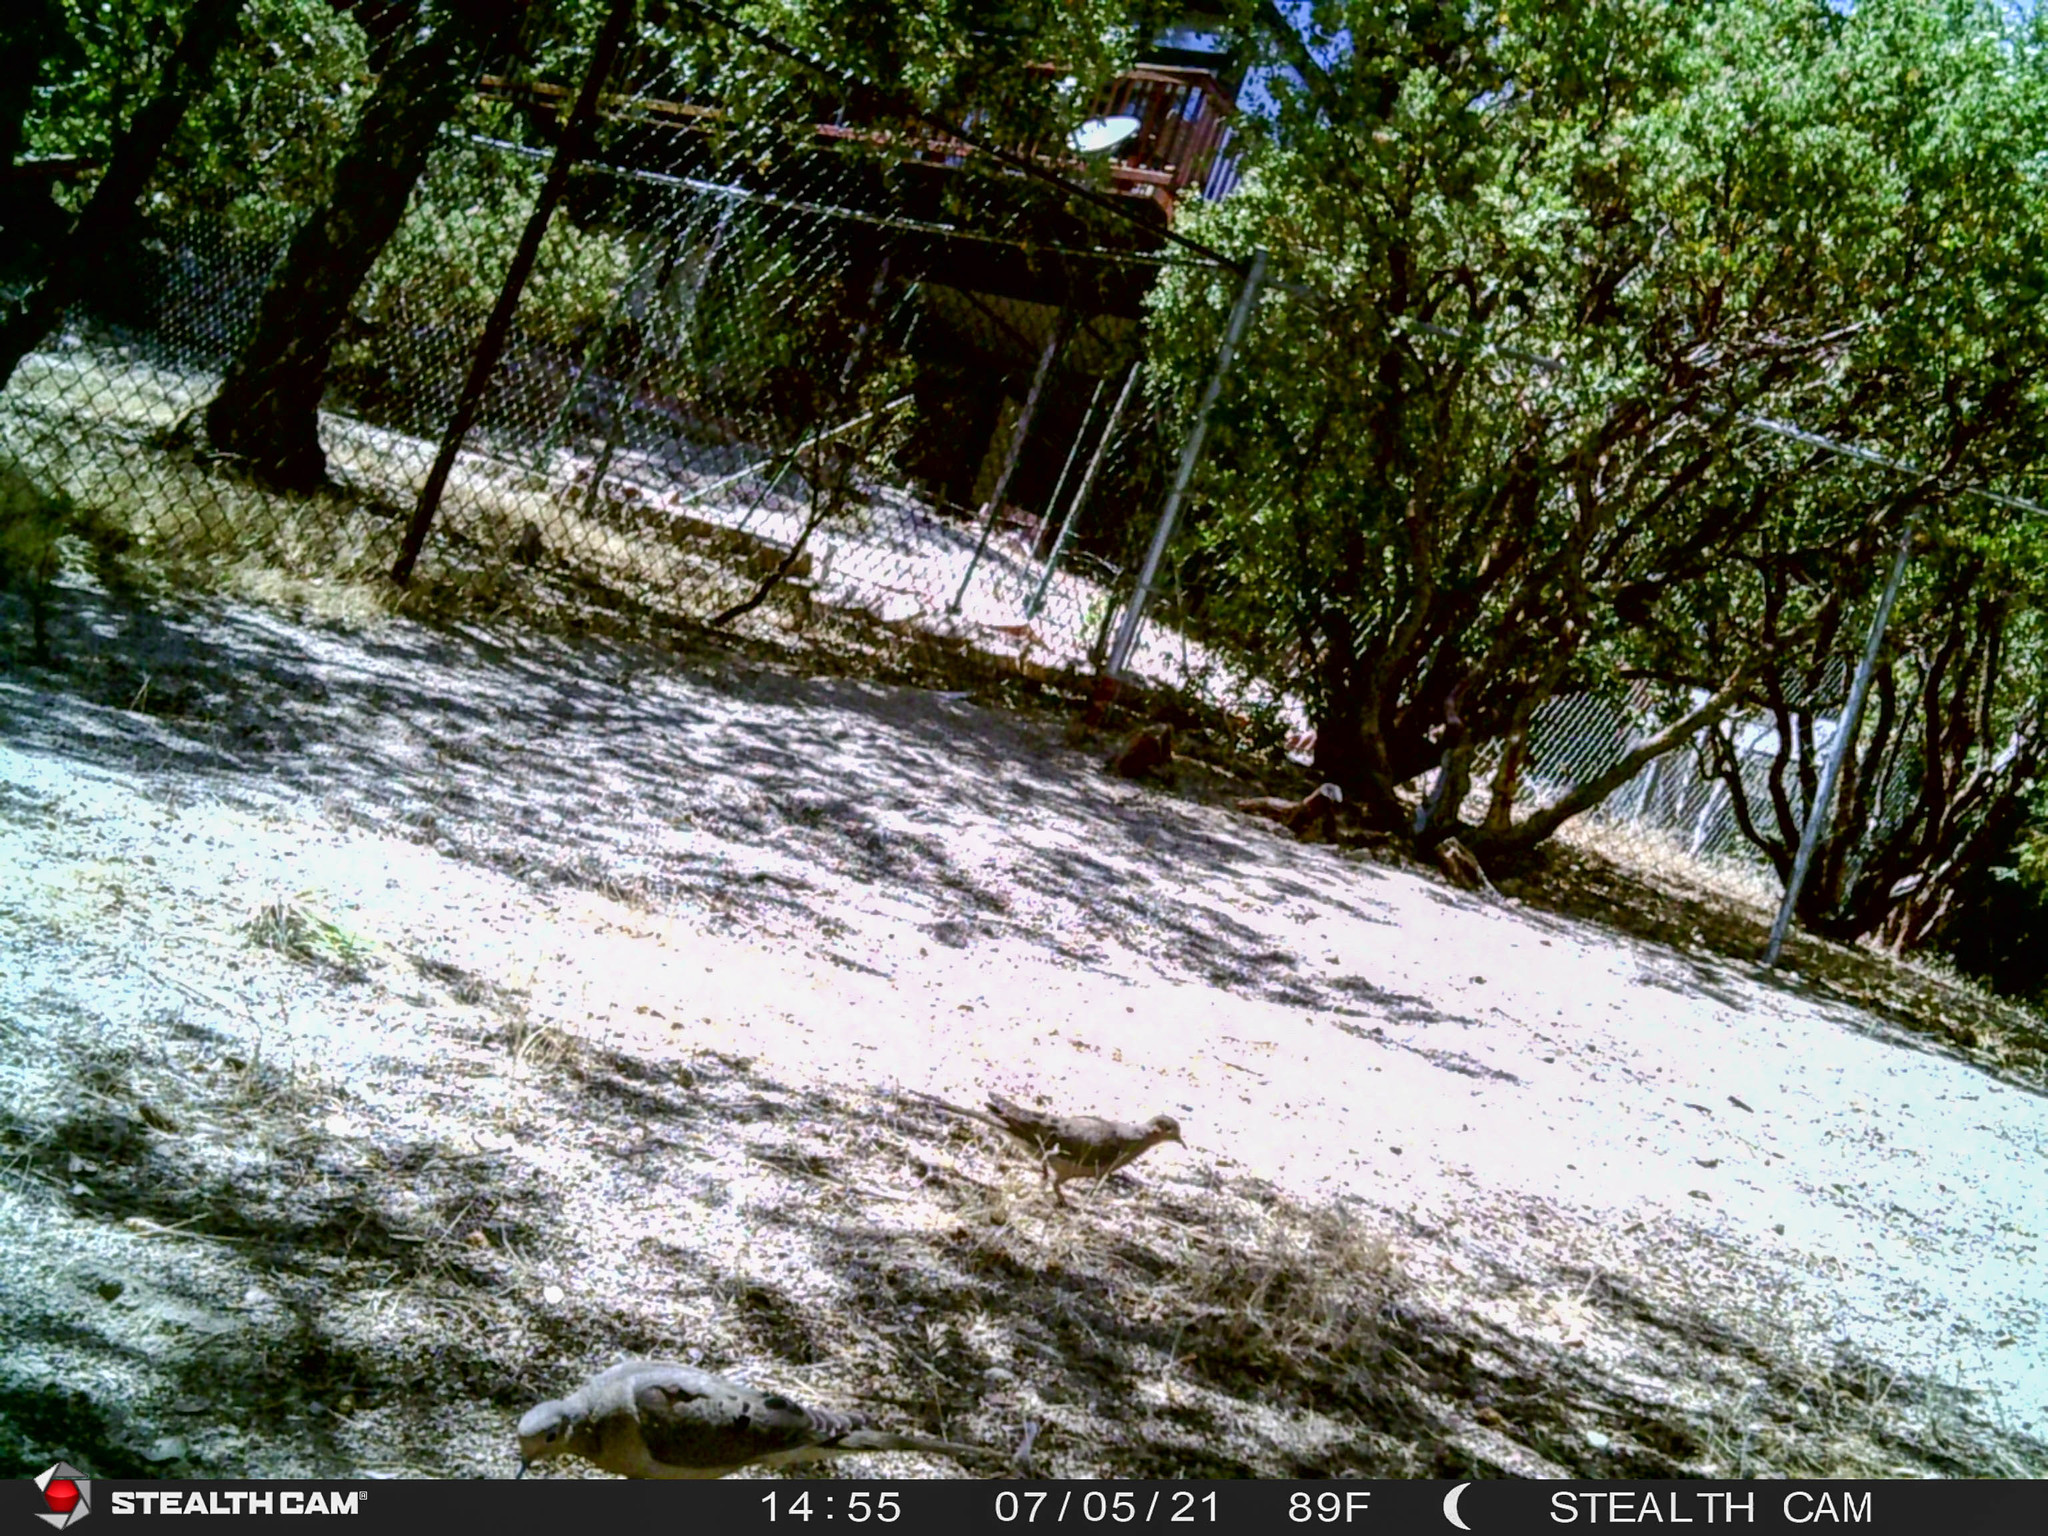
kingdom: Animalia
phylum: Chordata
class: Aves
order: Columbiformes
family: Columbidae
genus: Zenaida
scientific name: Zenaida macroura
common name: Mourning dove
